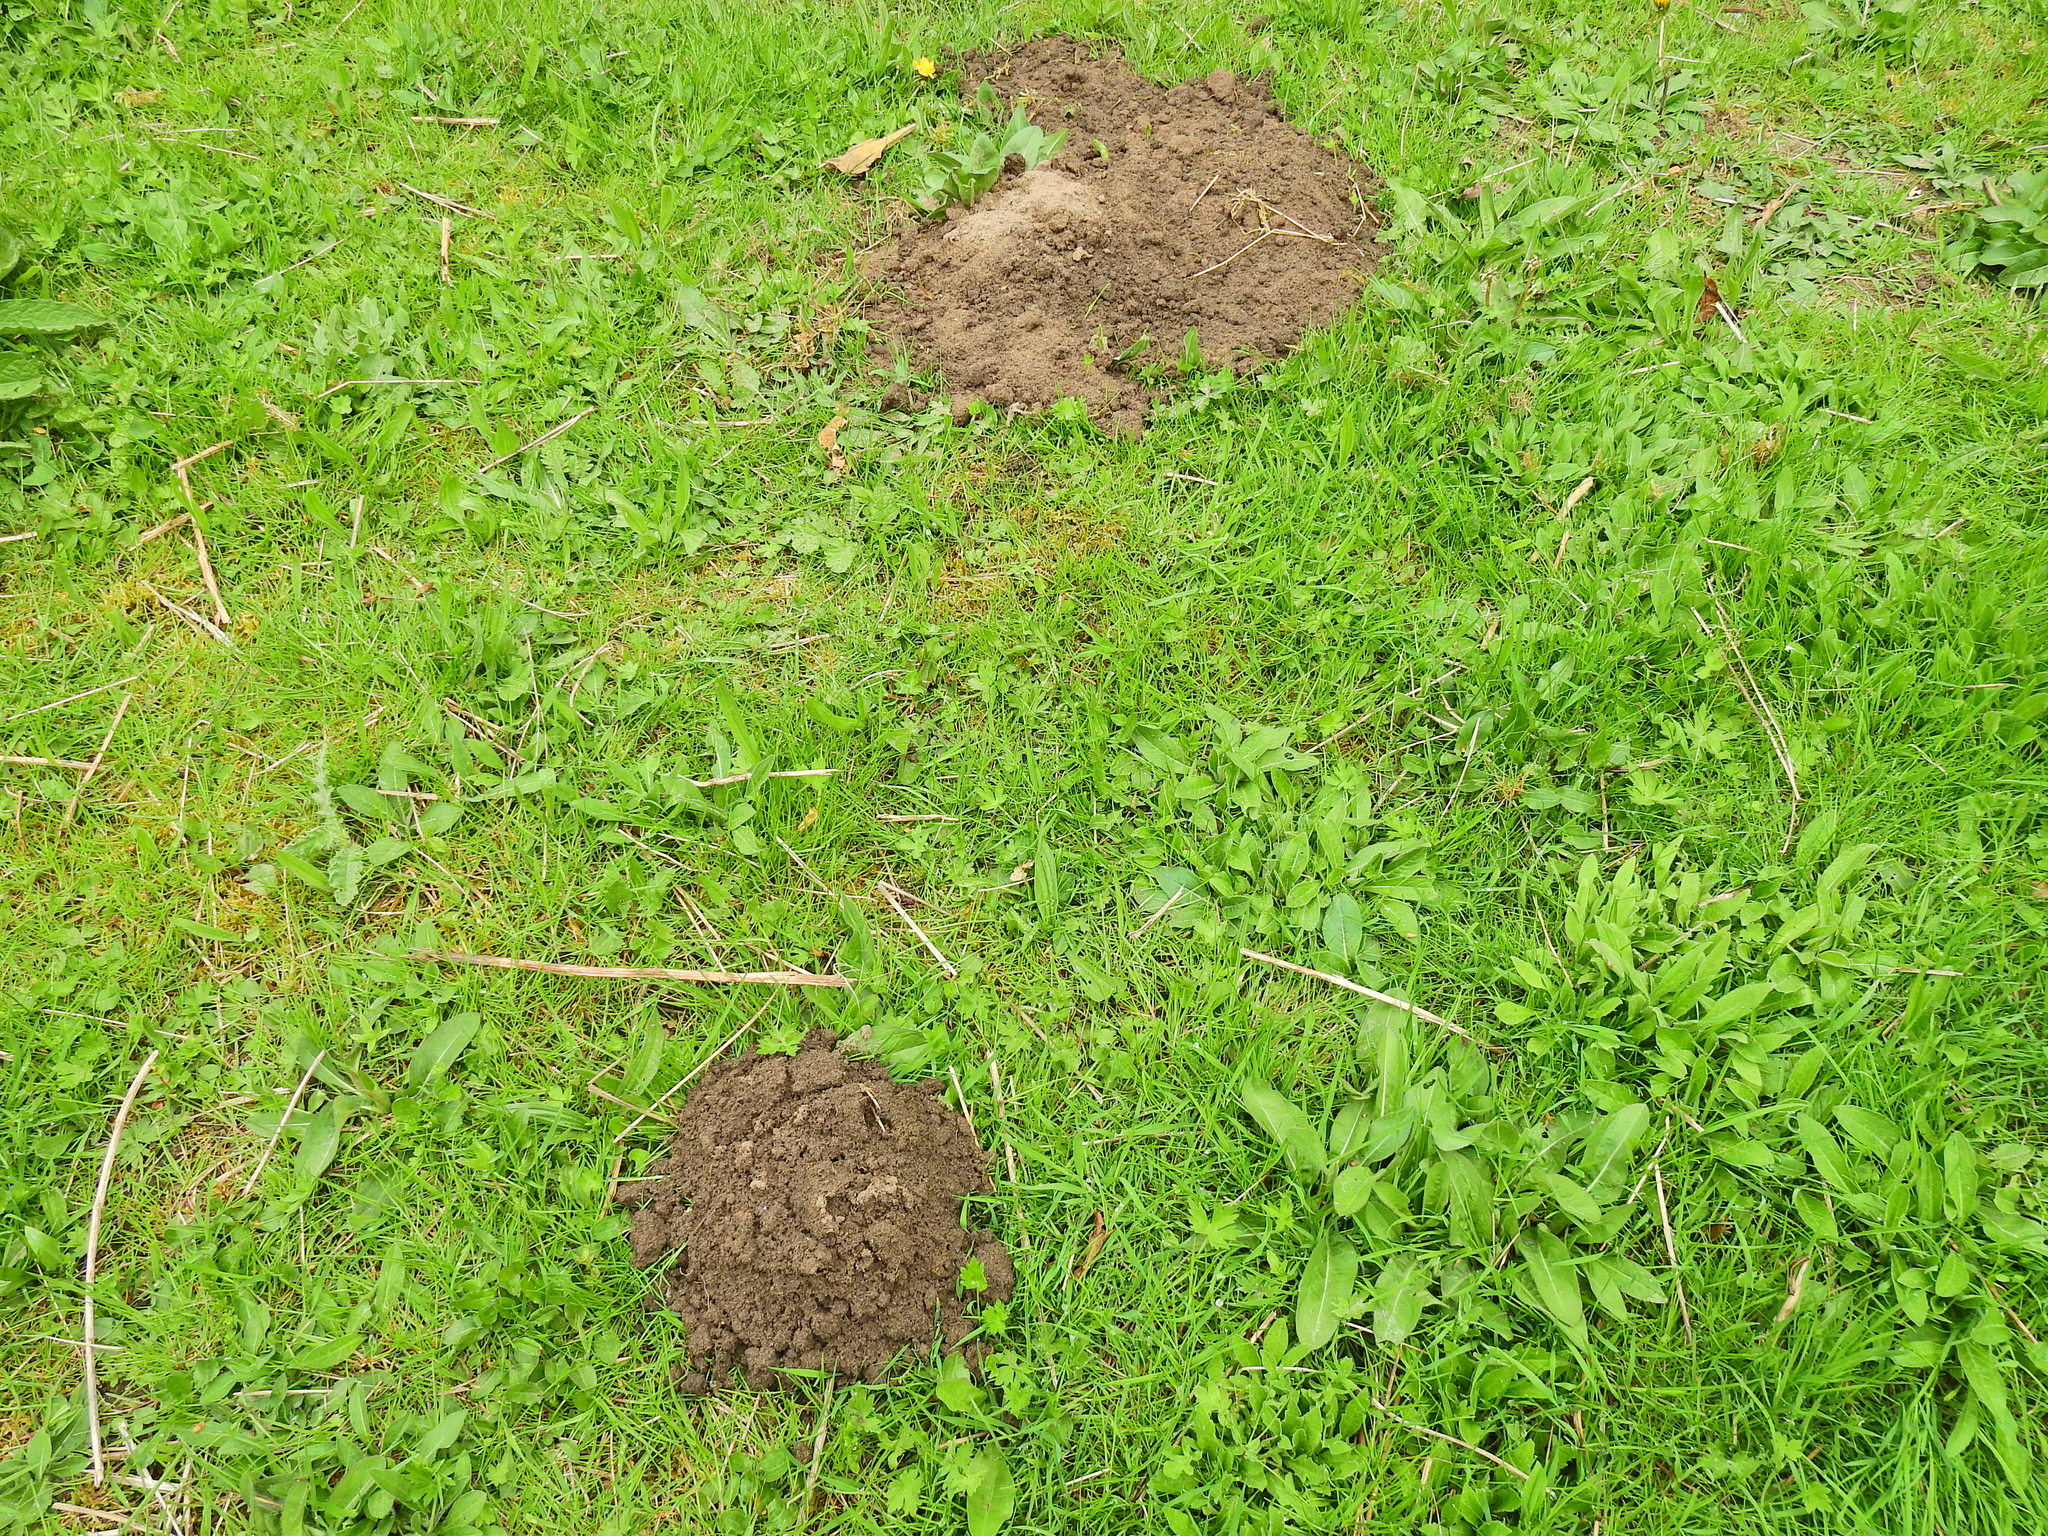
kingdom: Animalia
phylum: Chordata
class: Mammalia
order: Soricomorpha
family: Talpidae
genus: Talpa
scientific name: Talpa europaea
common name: European mole
